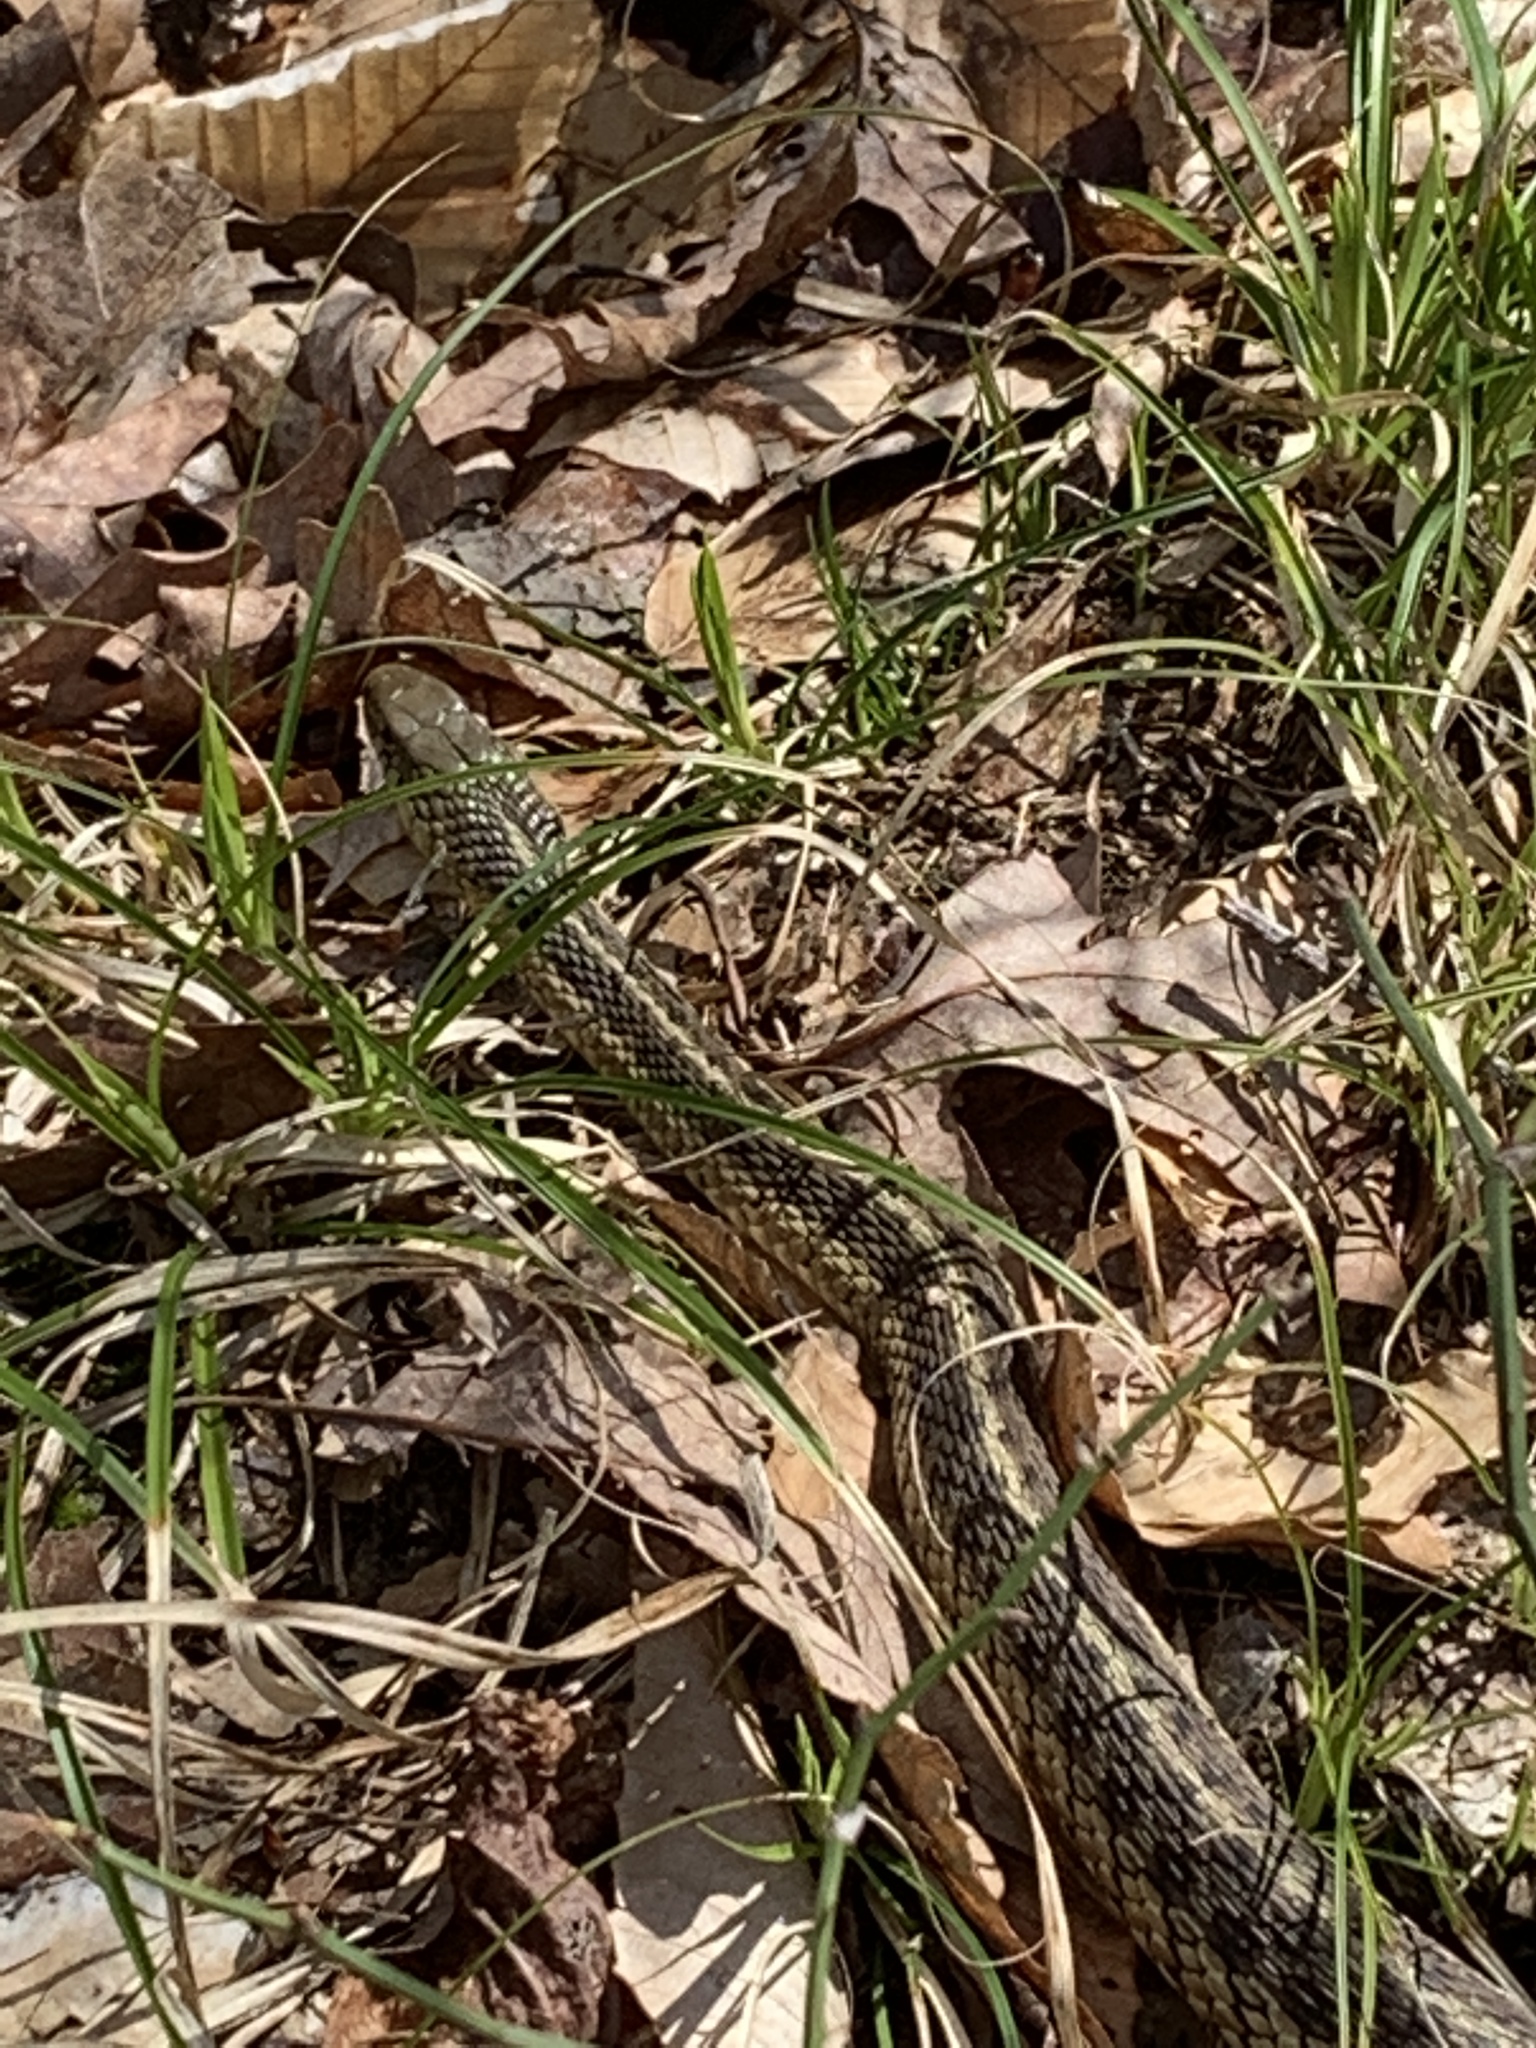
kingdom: Animalia
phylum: Chordata
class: Squamata
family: Colubridae
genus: Thamnophis
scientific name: Thamnophis sirtalis
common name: Common garter snake
